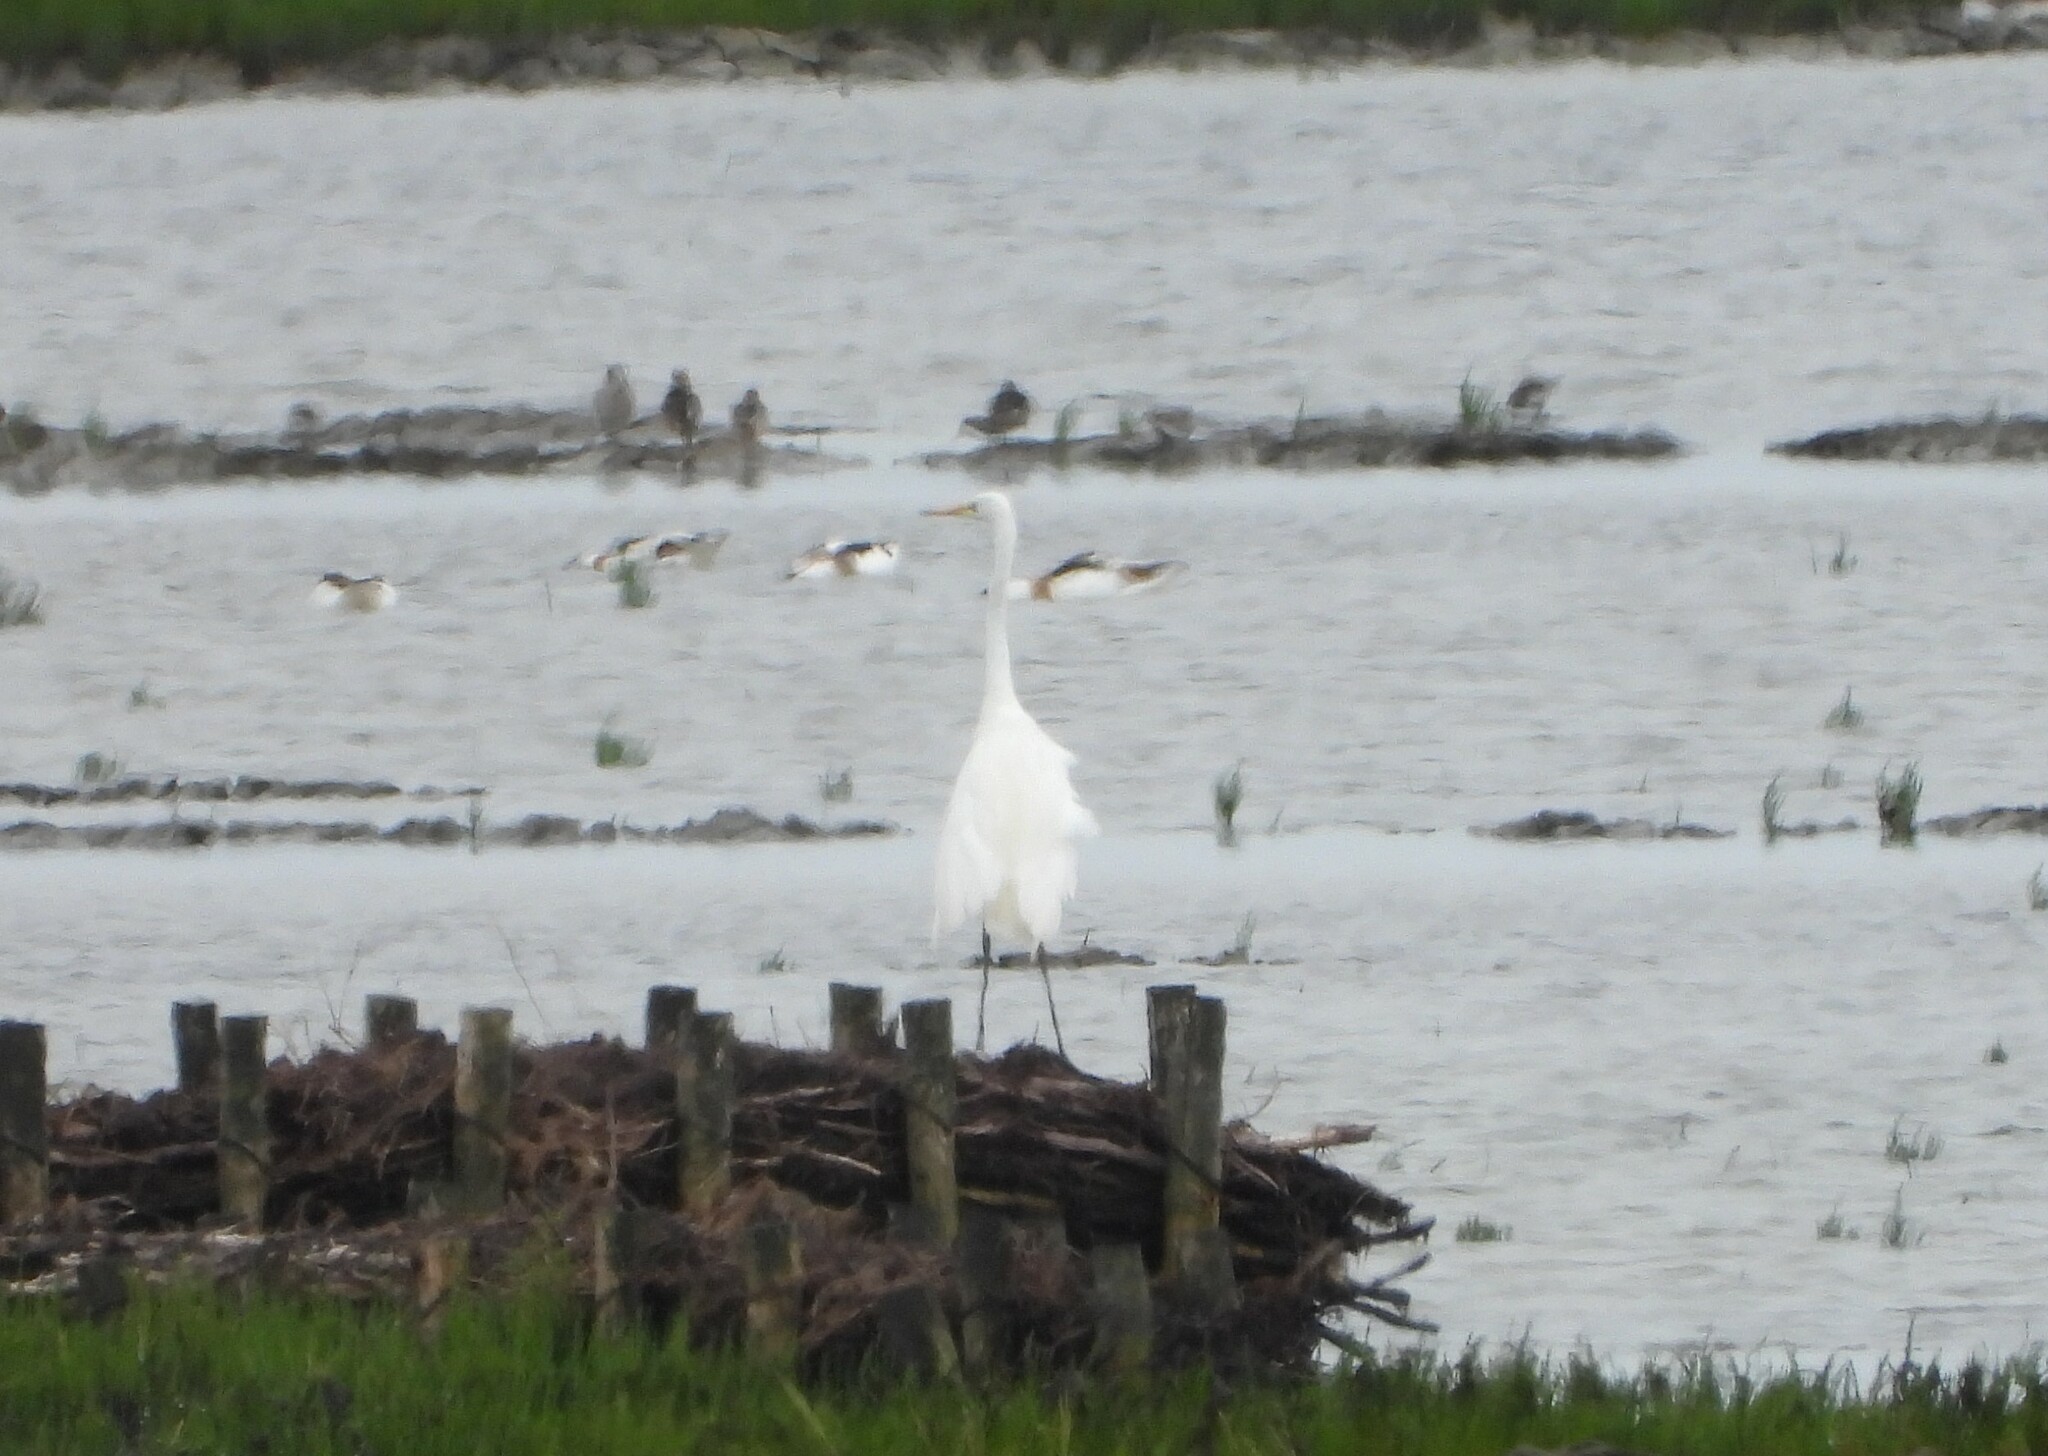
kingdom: Animalia
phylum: Chordata
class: Aves
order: Pelecaniformes
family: Ardeidae
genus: Ardea
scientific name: Ardea alba
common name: Great egret
